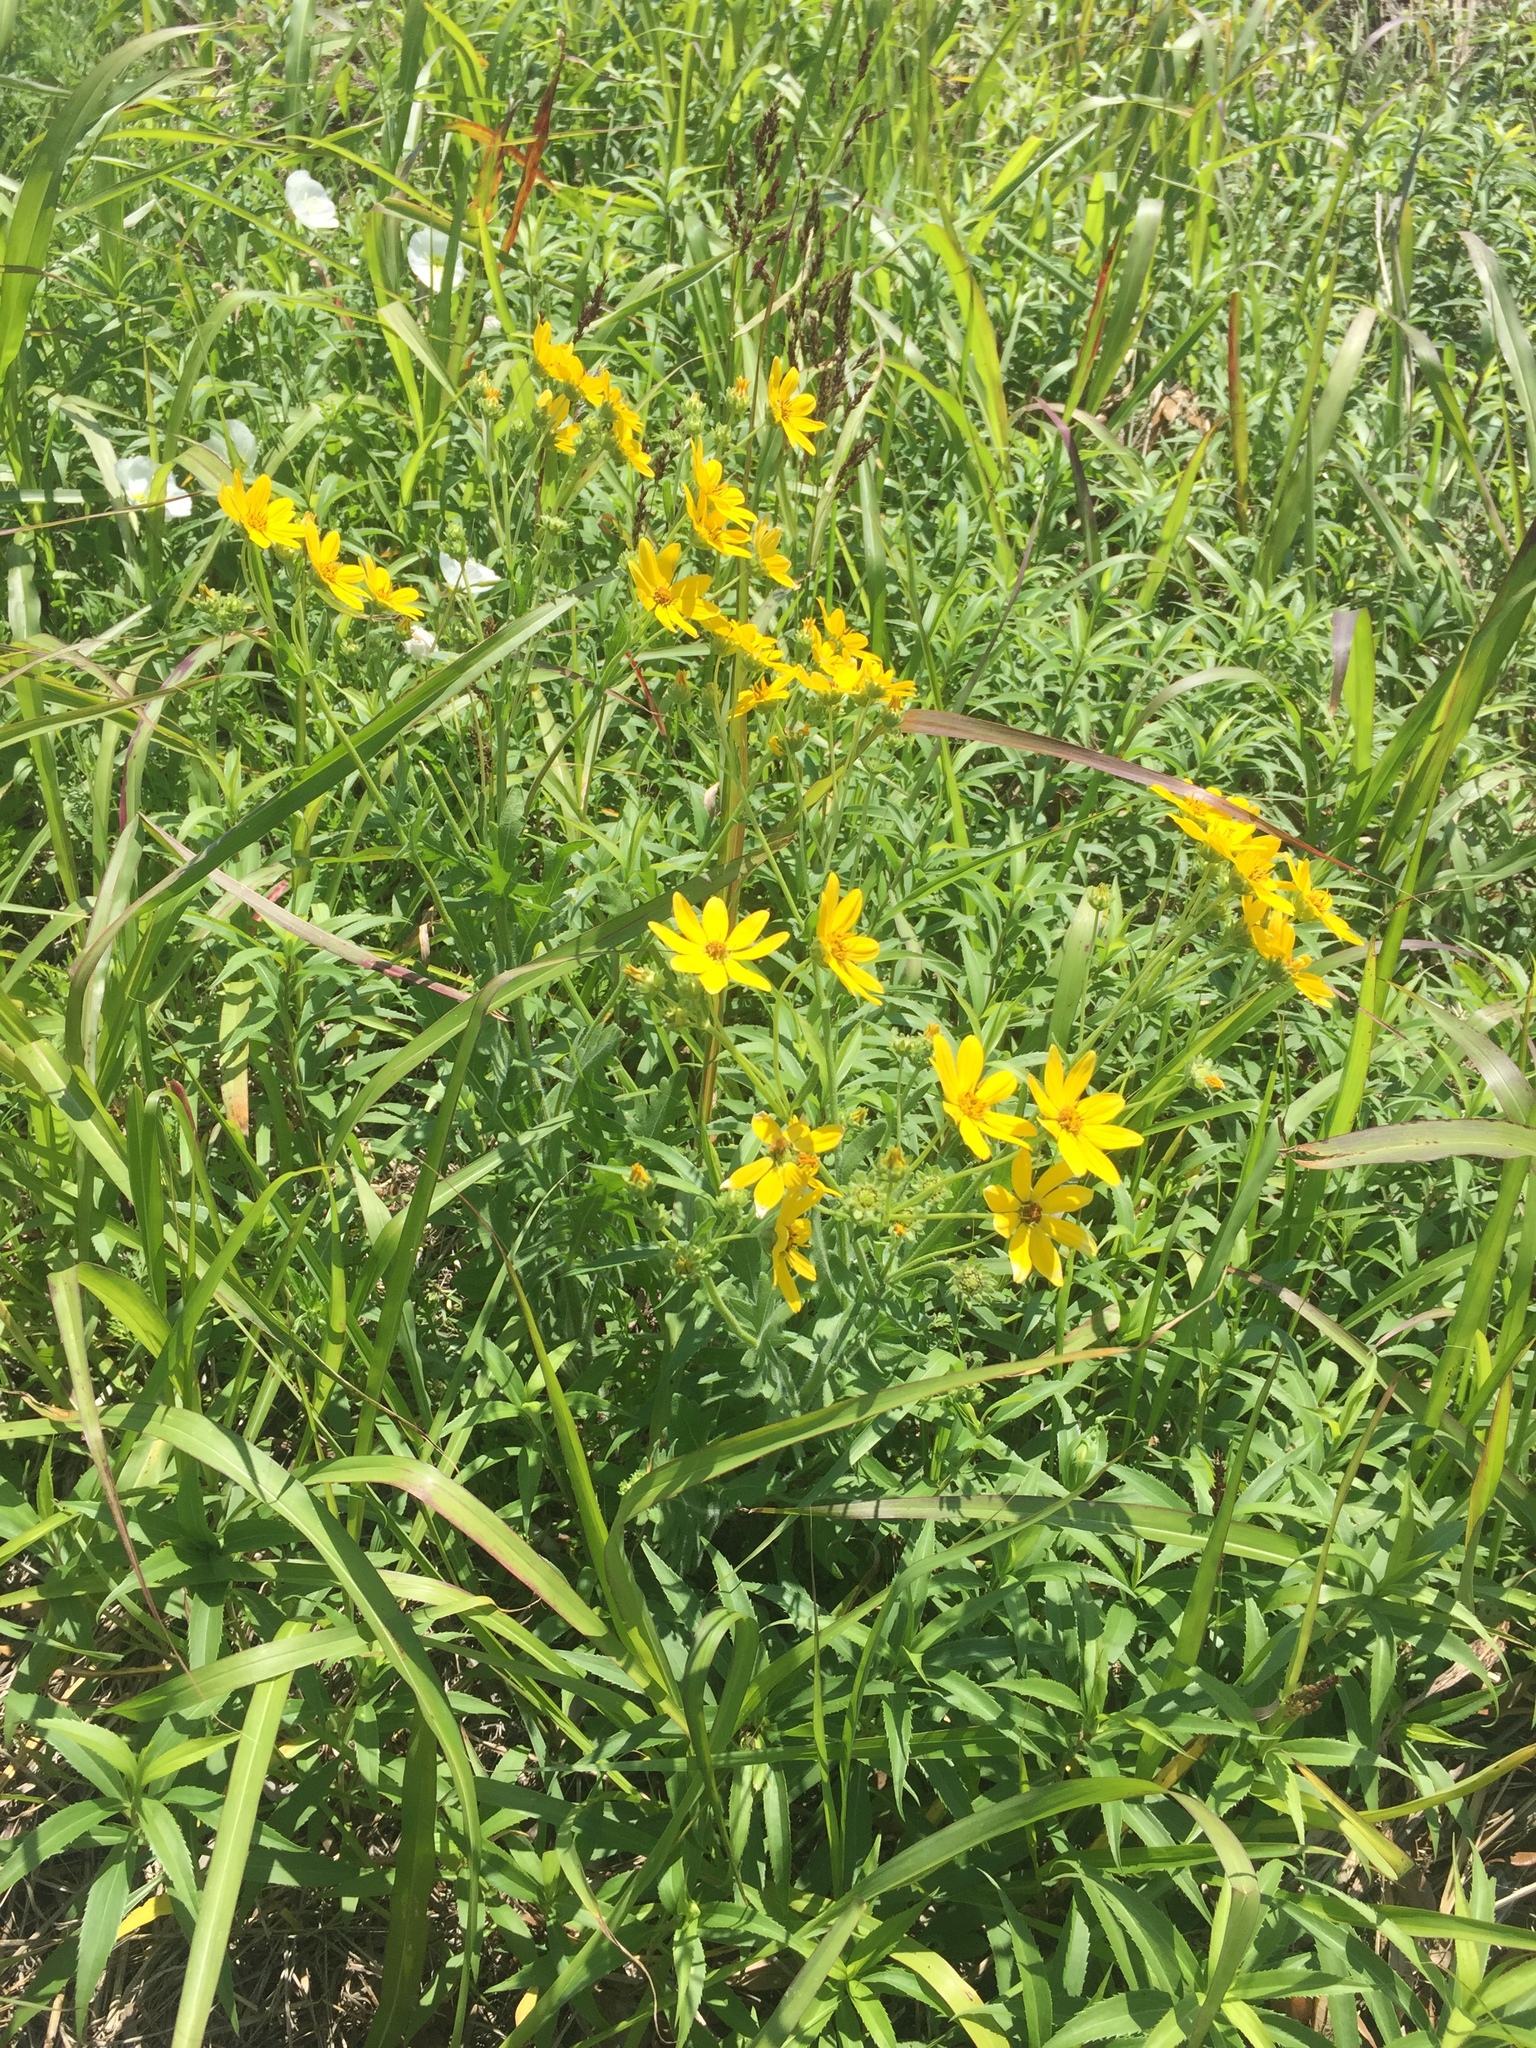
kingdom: Plantae
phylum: Tracheophyta
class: Magnoliopsida
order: Asterales
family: Asteraceae
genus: Engelmannia
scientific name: Engelmannia peristenia
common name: Engelmann's daisy
